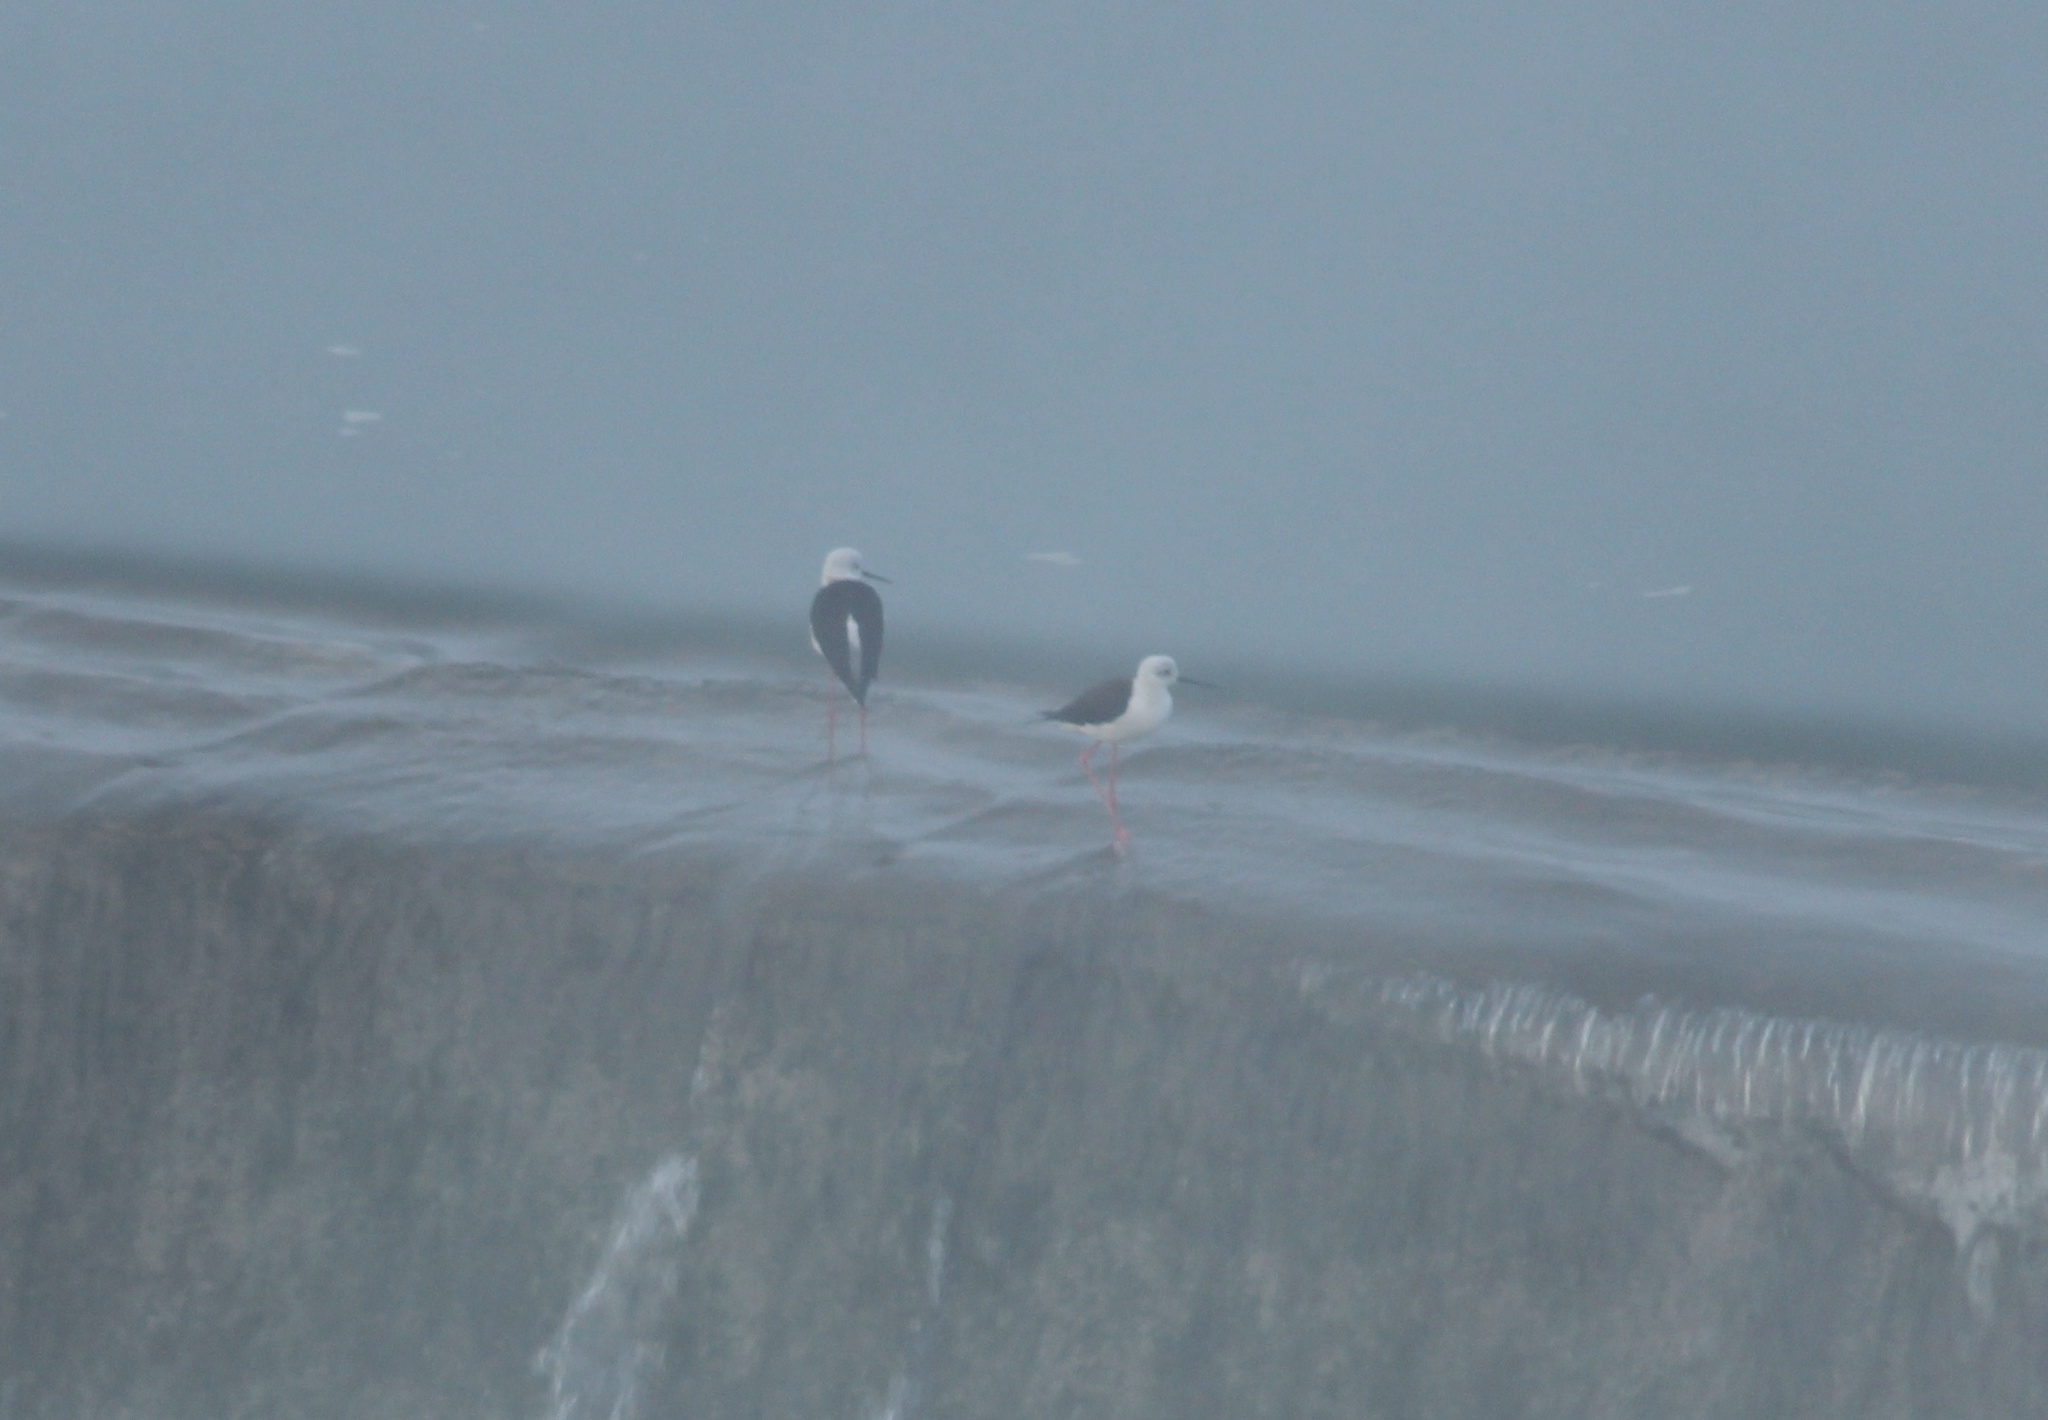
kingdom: Animalia
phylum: Chordata
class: Aves
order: Charadriiformes
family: Recurvirostridae
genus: Himantopus
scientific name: Himantopus himantopus
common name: Black-winged stilt
